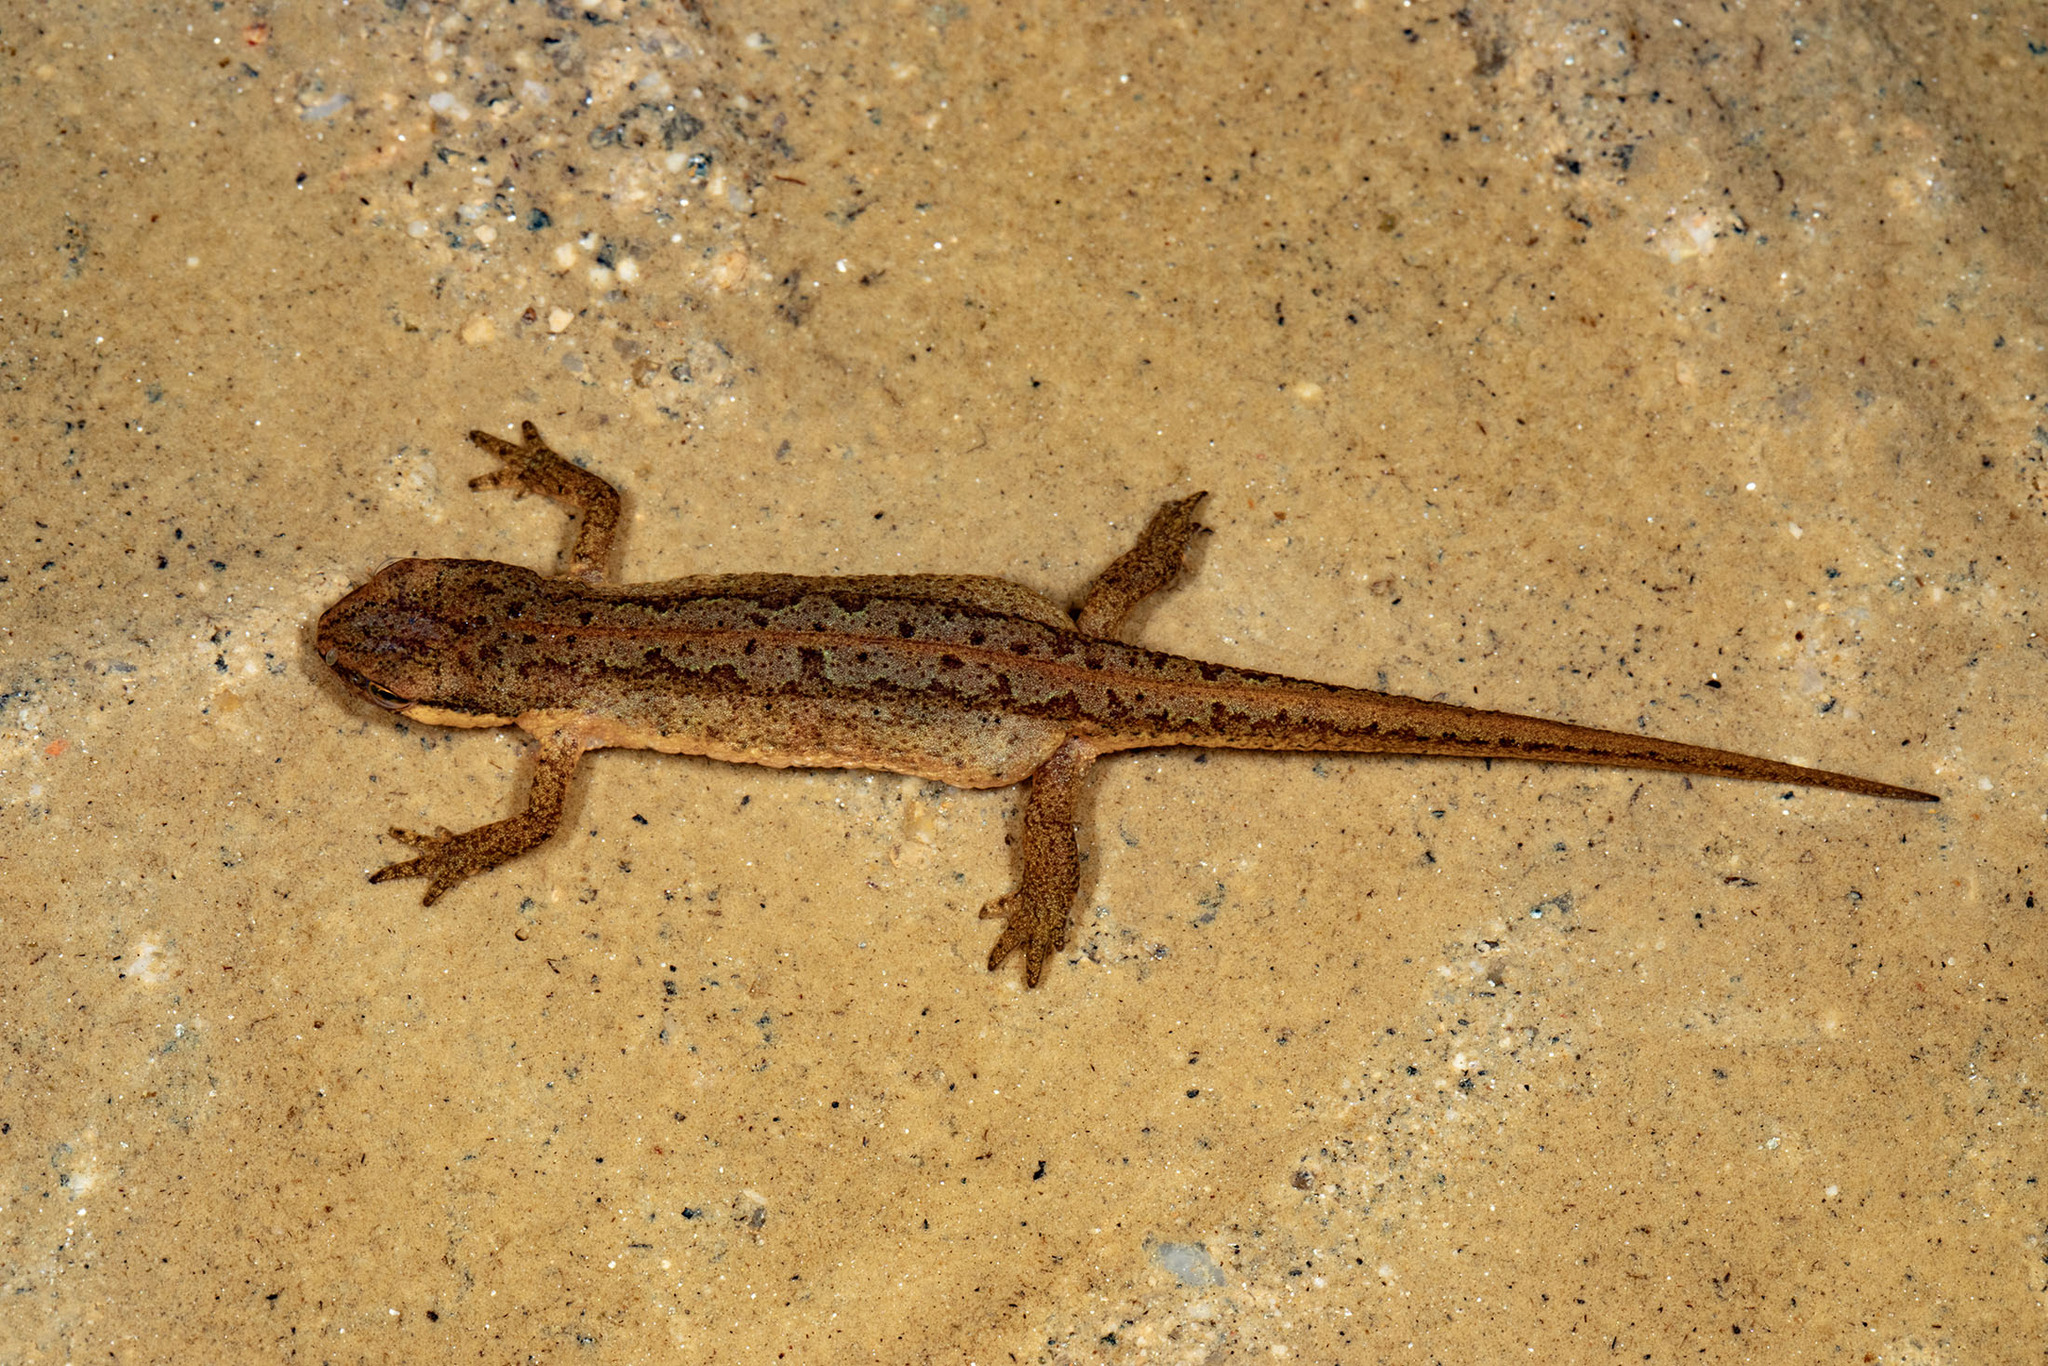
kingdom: Animalia
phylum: Chordata
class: Amphibia
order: Caudata
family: Salamandridae
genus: Lissotriton
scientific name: Lissotriton boscai
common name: Bosca's newt
